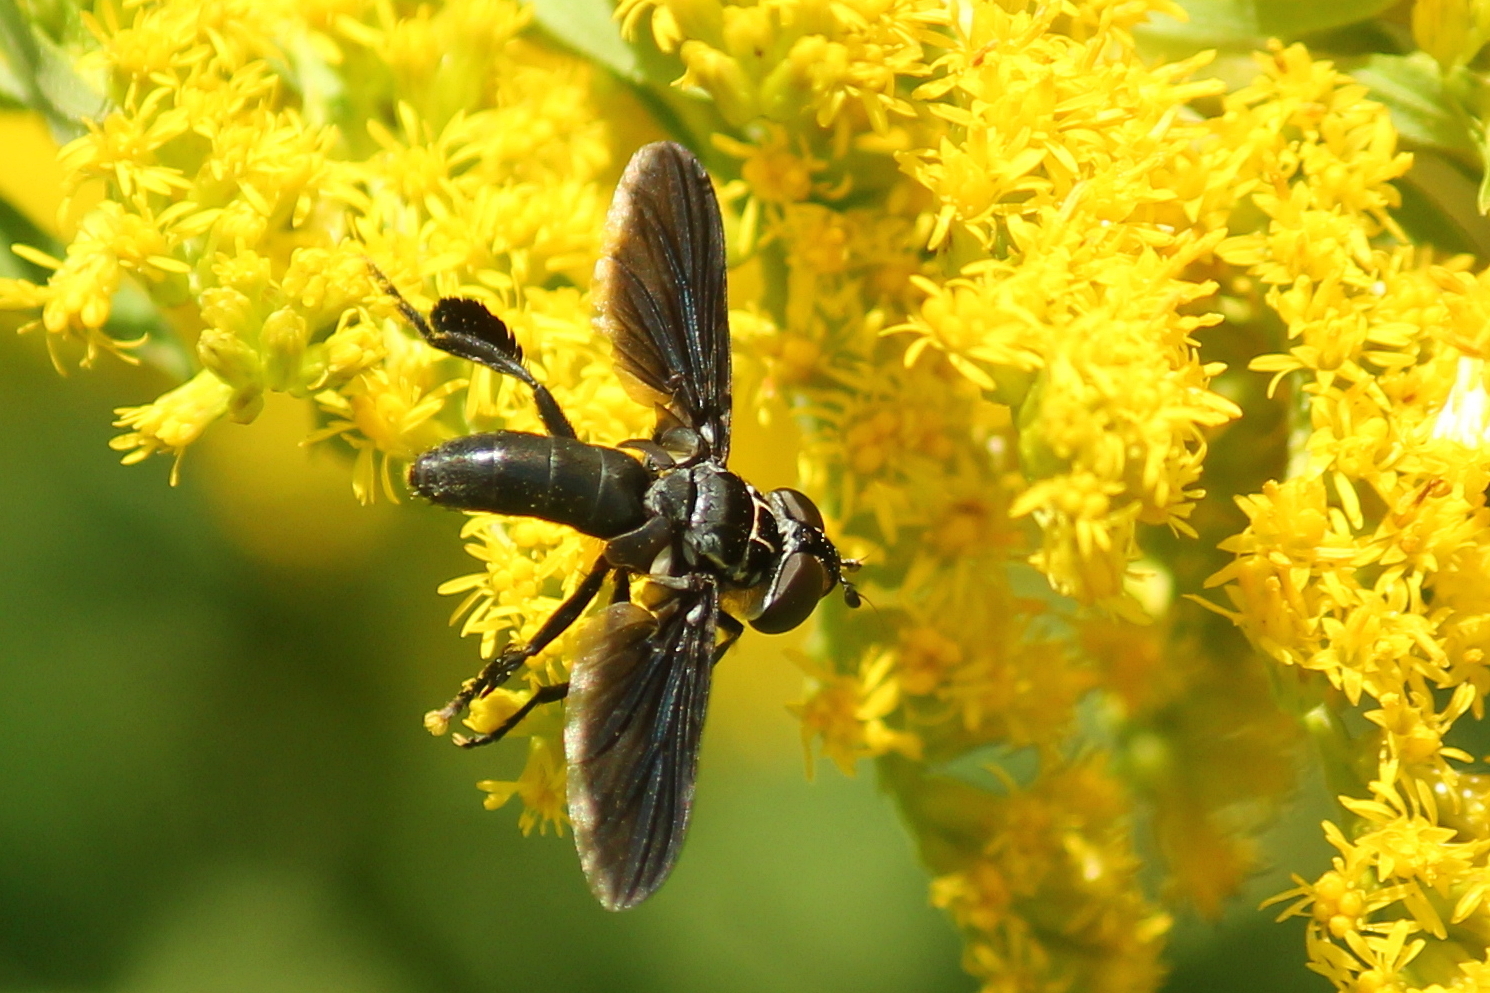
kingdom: Animalia
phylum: Arthropoda
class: Insecta
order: Diptera
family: Tachinidae
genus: Trichopoda
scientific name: Trichopoda lanipes
